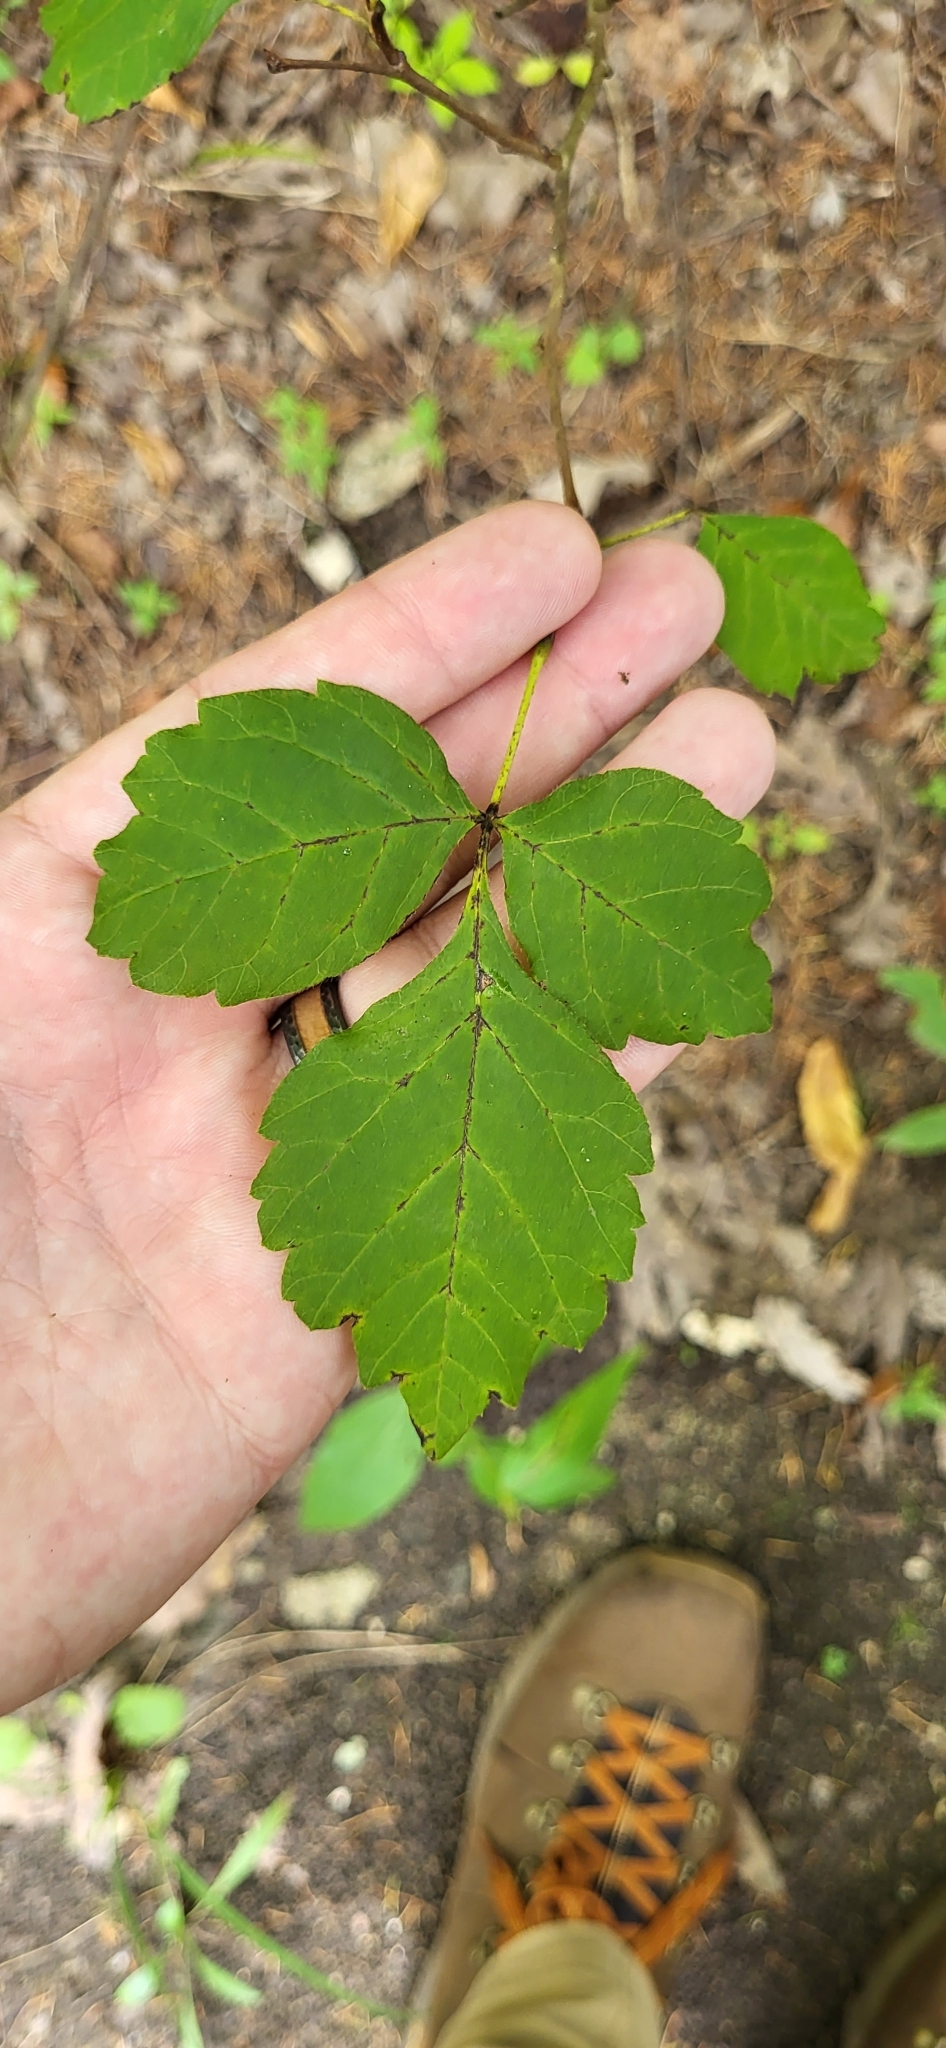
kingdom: Plantae
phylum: Tracheophyta
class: Magnoliopsida
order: Sapindales
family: Anacardiaceae
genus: Rhus
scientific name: Rhus aromatica
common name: Aromatic sumac
